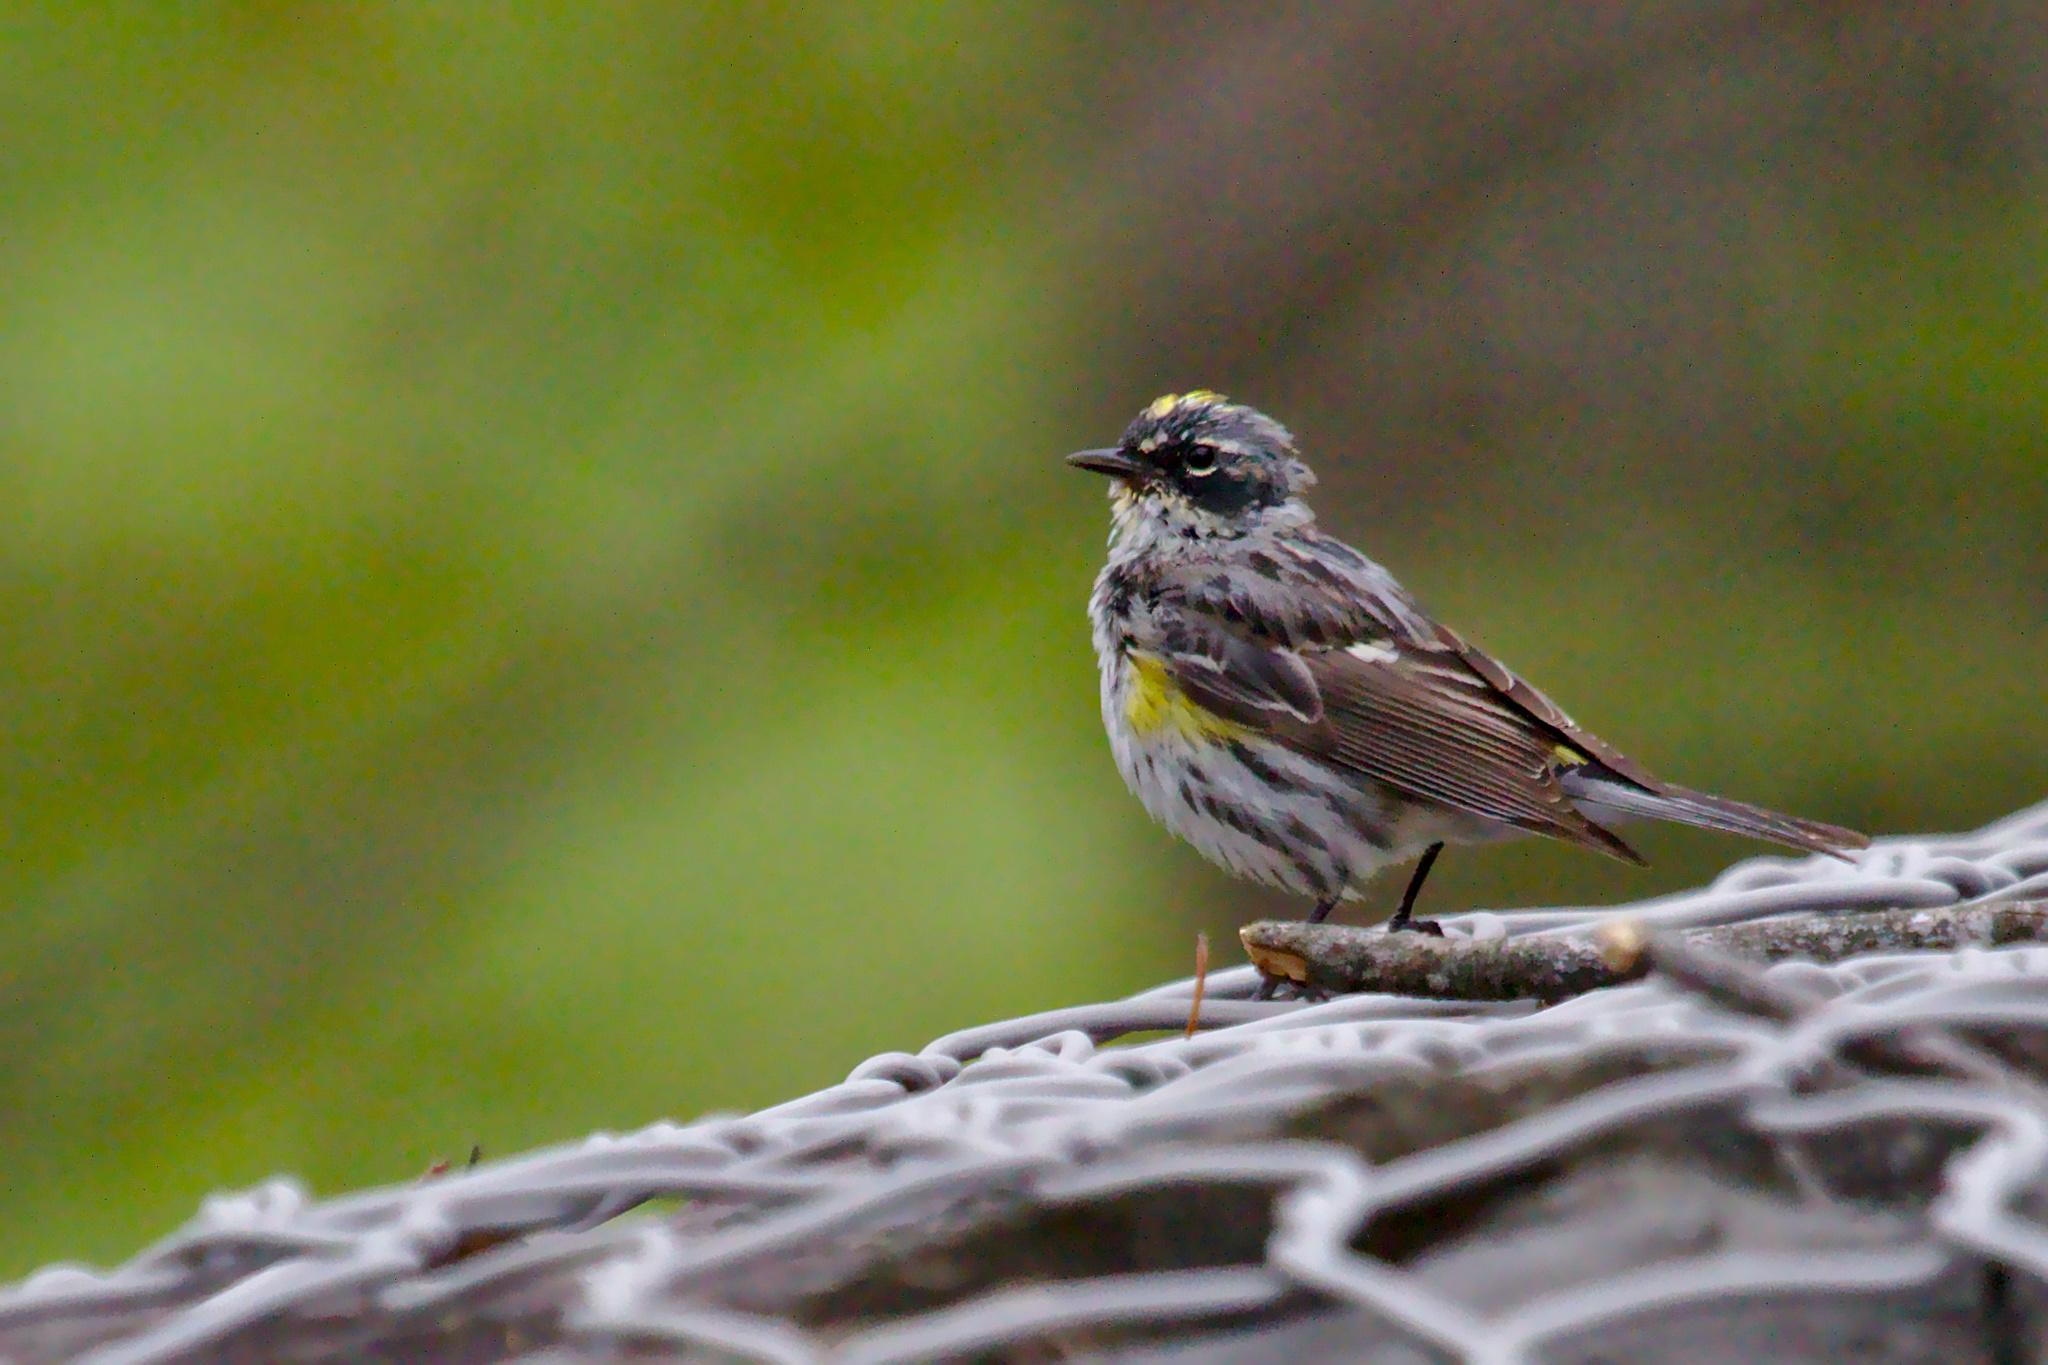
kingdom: Animalia
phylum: Chordata
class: Aves
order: Passeriformes
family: Parulidae
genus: Setophaga
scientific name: Setophaga coronata
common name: Myrtle warbler
